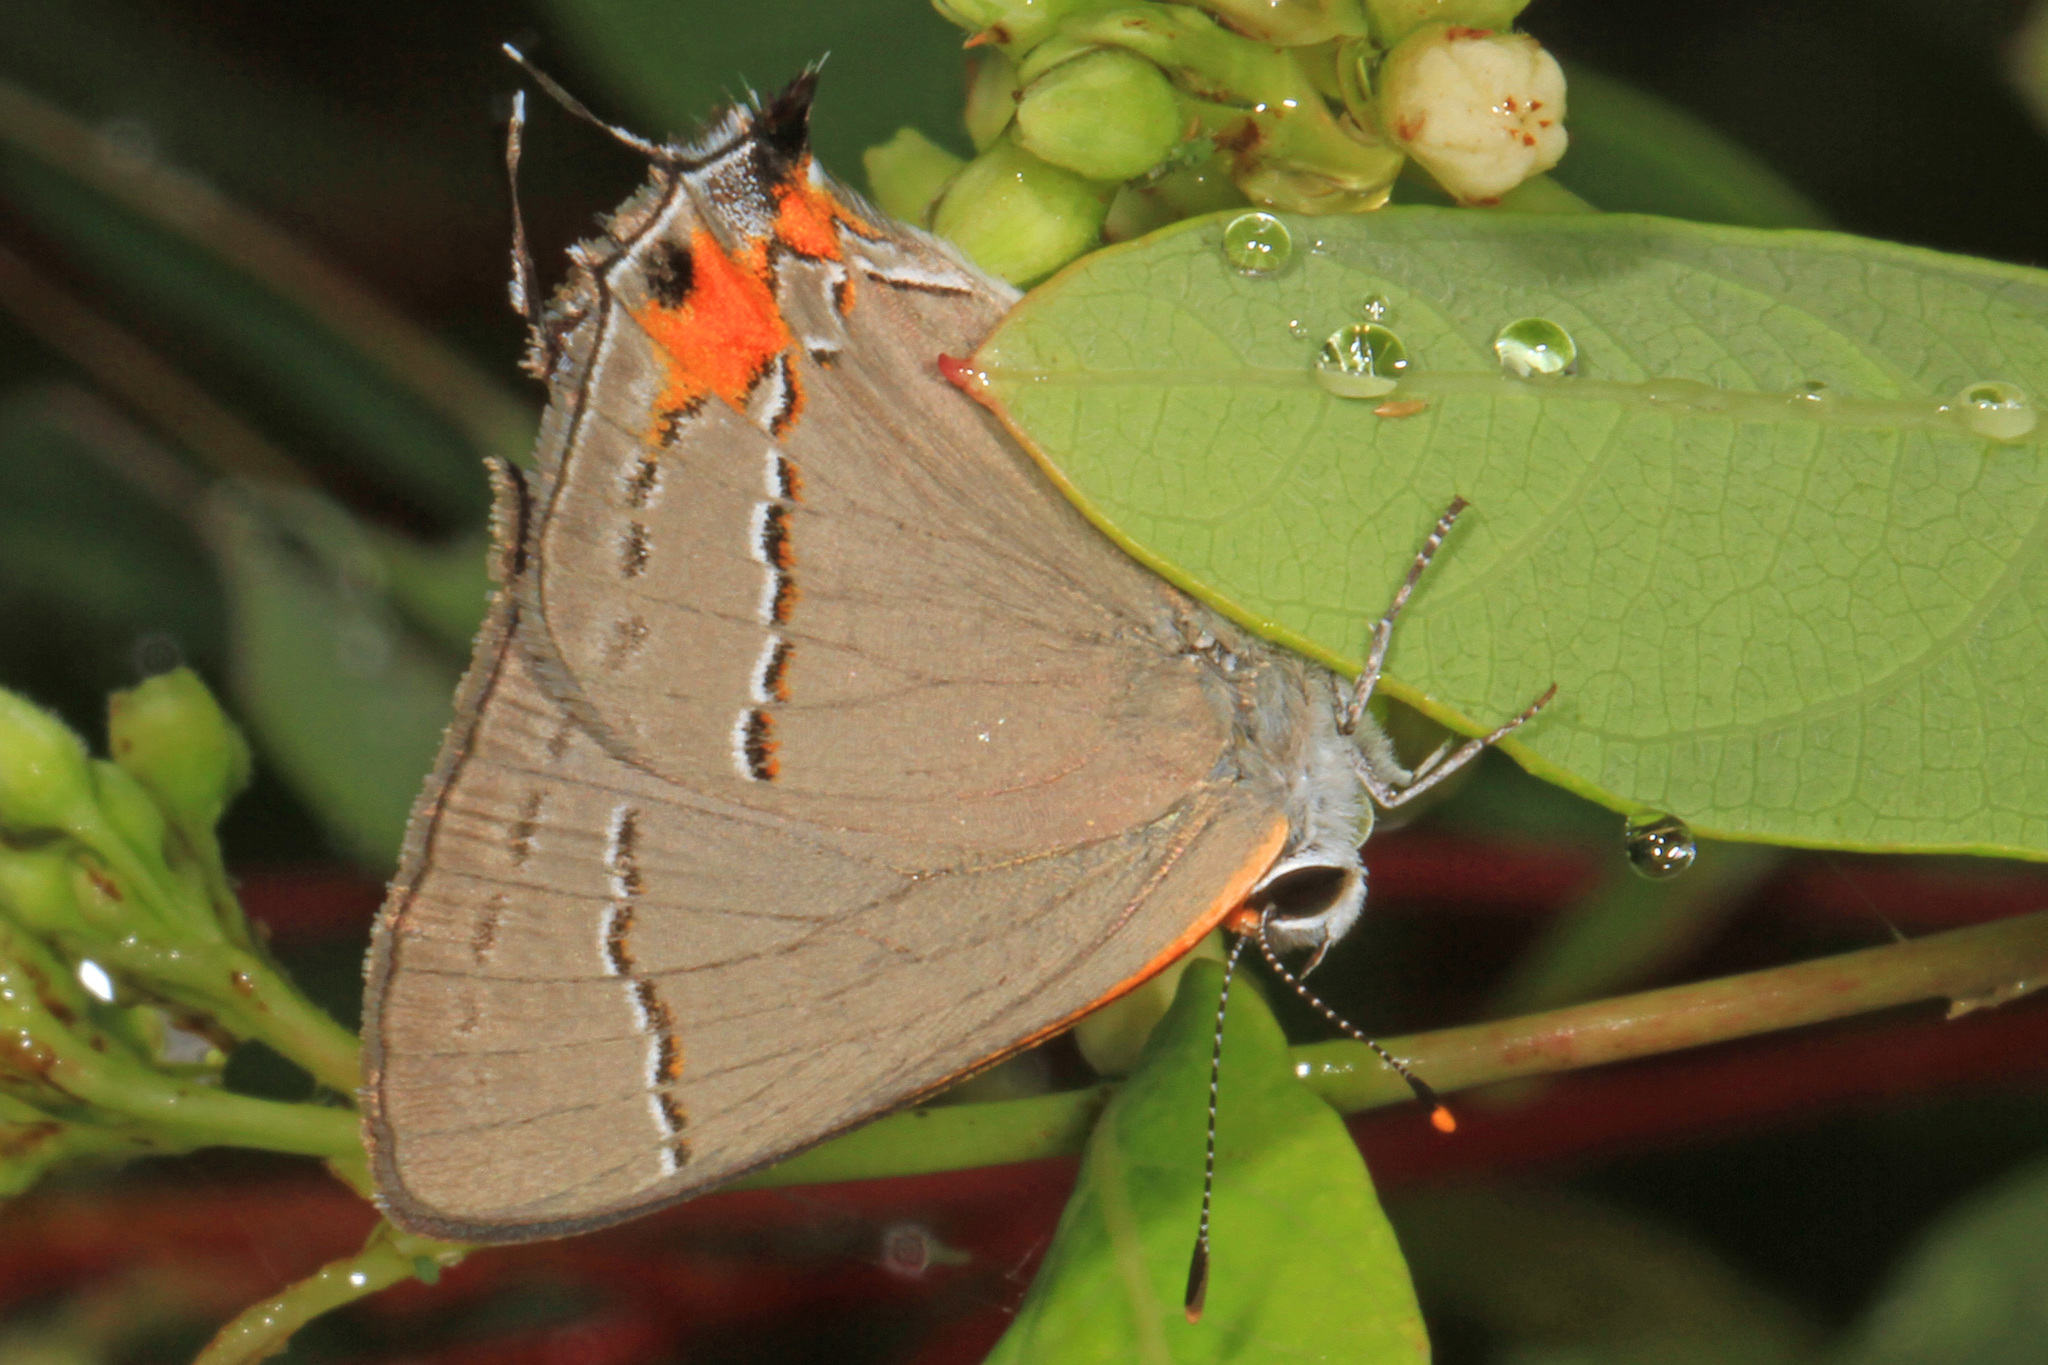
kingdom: Animalia
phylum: Arthropoda
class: Insecta
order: Lepidoptera
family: Lycaenidae
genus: Strymon
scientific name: Strymon melinus
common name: Gray hairstreak
